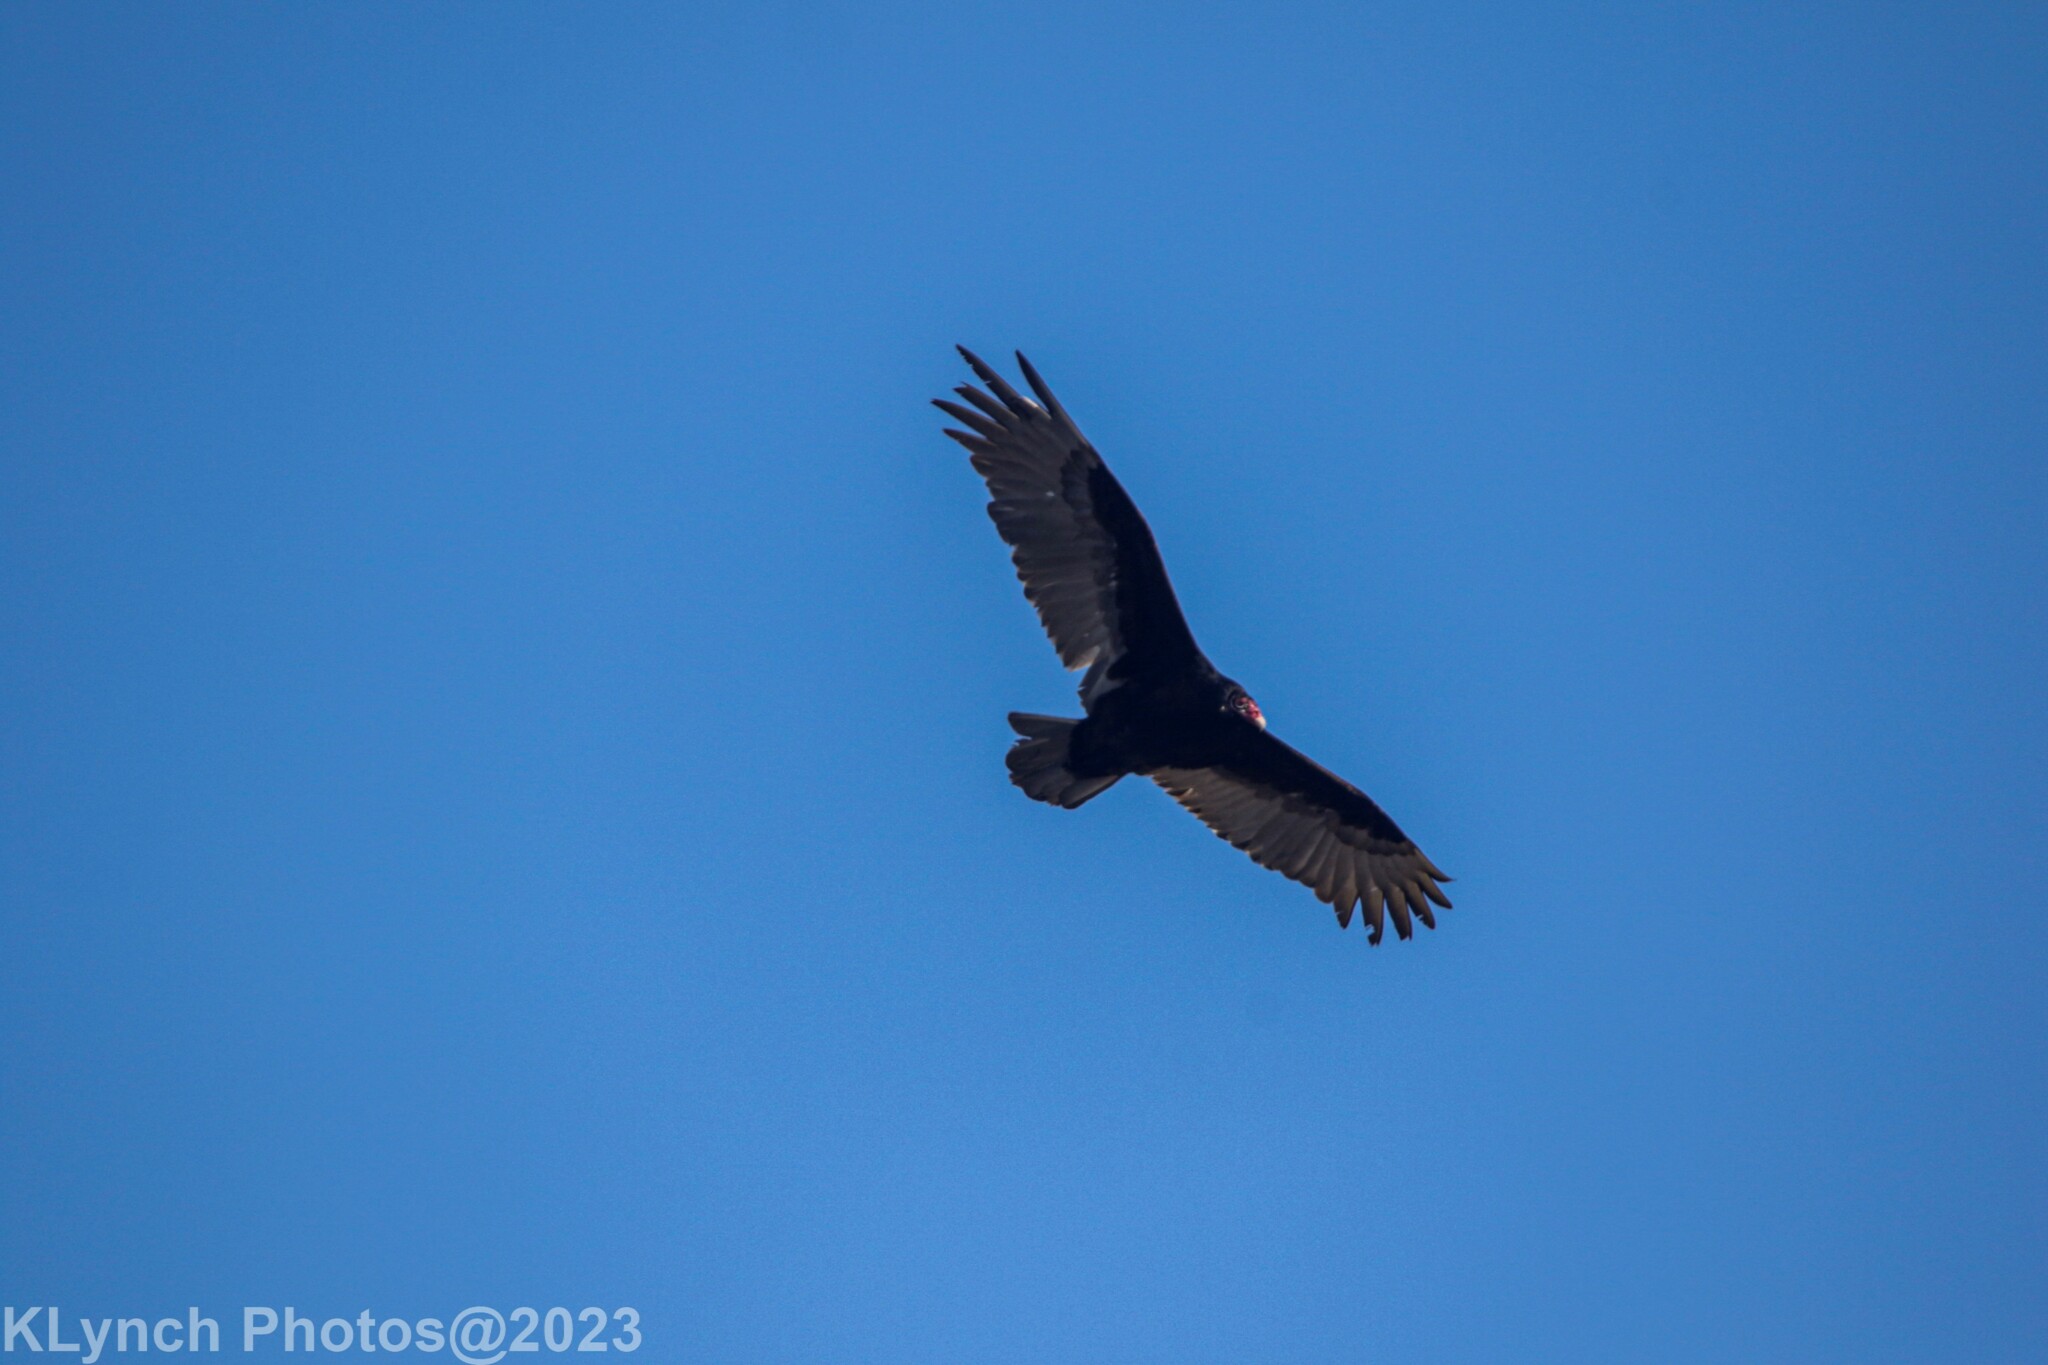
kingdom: Animalia
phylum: Chordata
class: Aves
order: Accipitriformes
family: Cathartidae
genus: Cathartes
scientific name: Cathartes aura
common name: Turkey vulture
